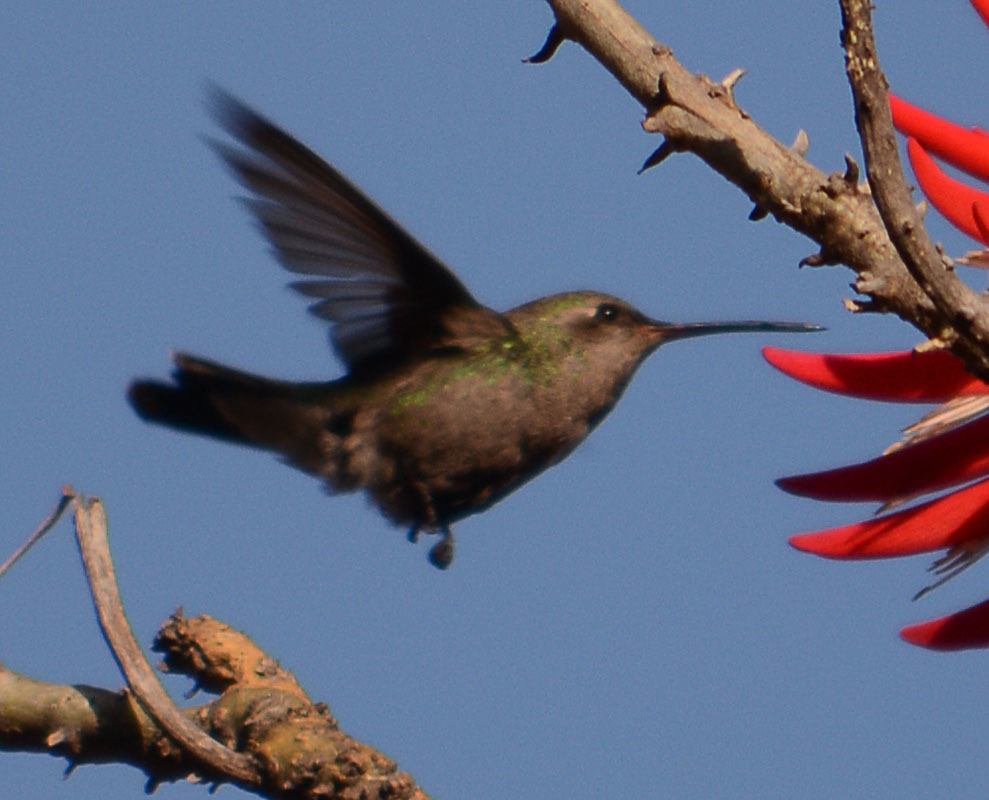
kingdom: Animalia
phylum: Chordata
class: Aves
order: Apodiformes
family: Trochilidae
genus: Cynanthus
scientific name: Cynanthus latirostris
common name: Broad-billed hummingbird
